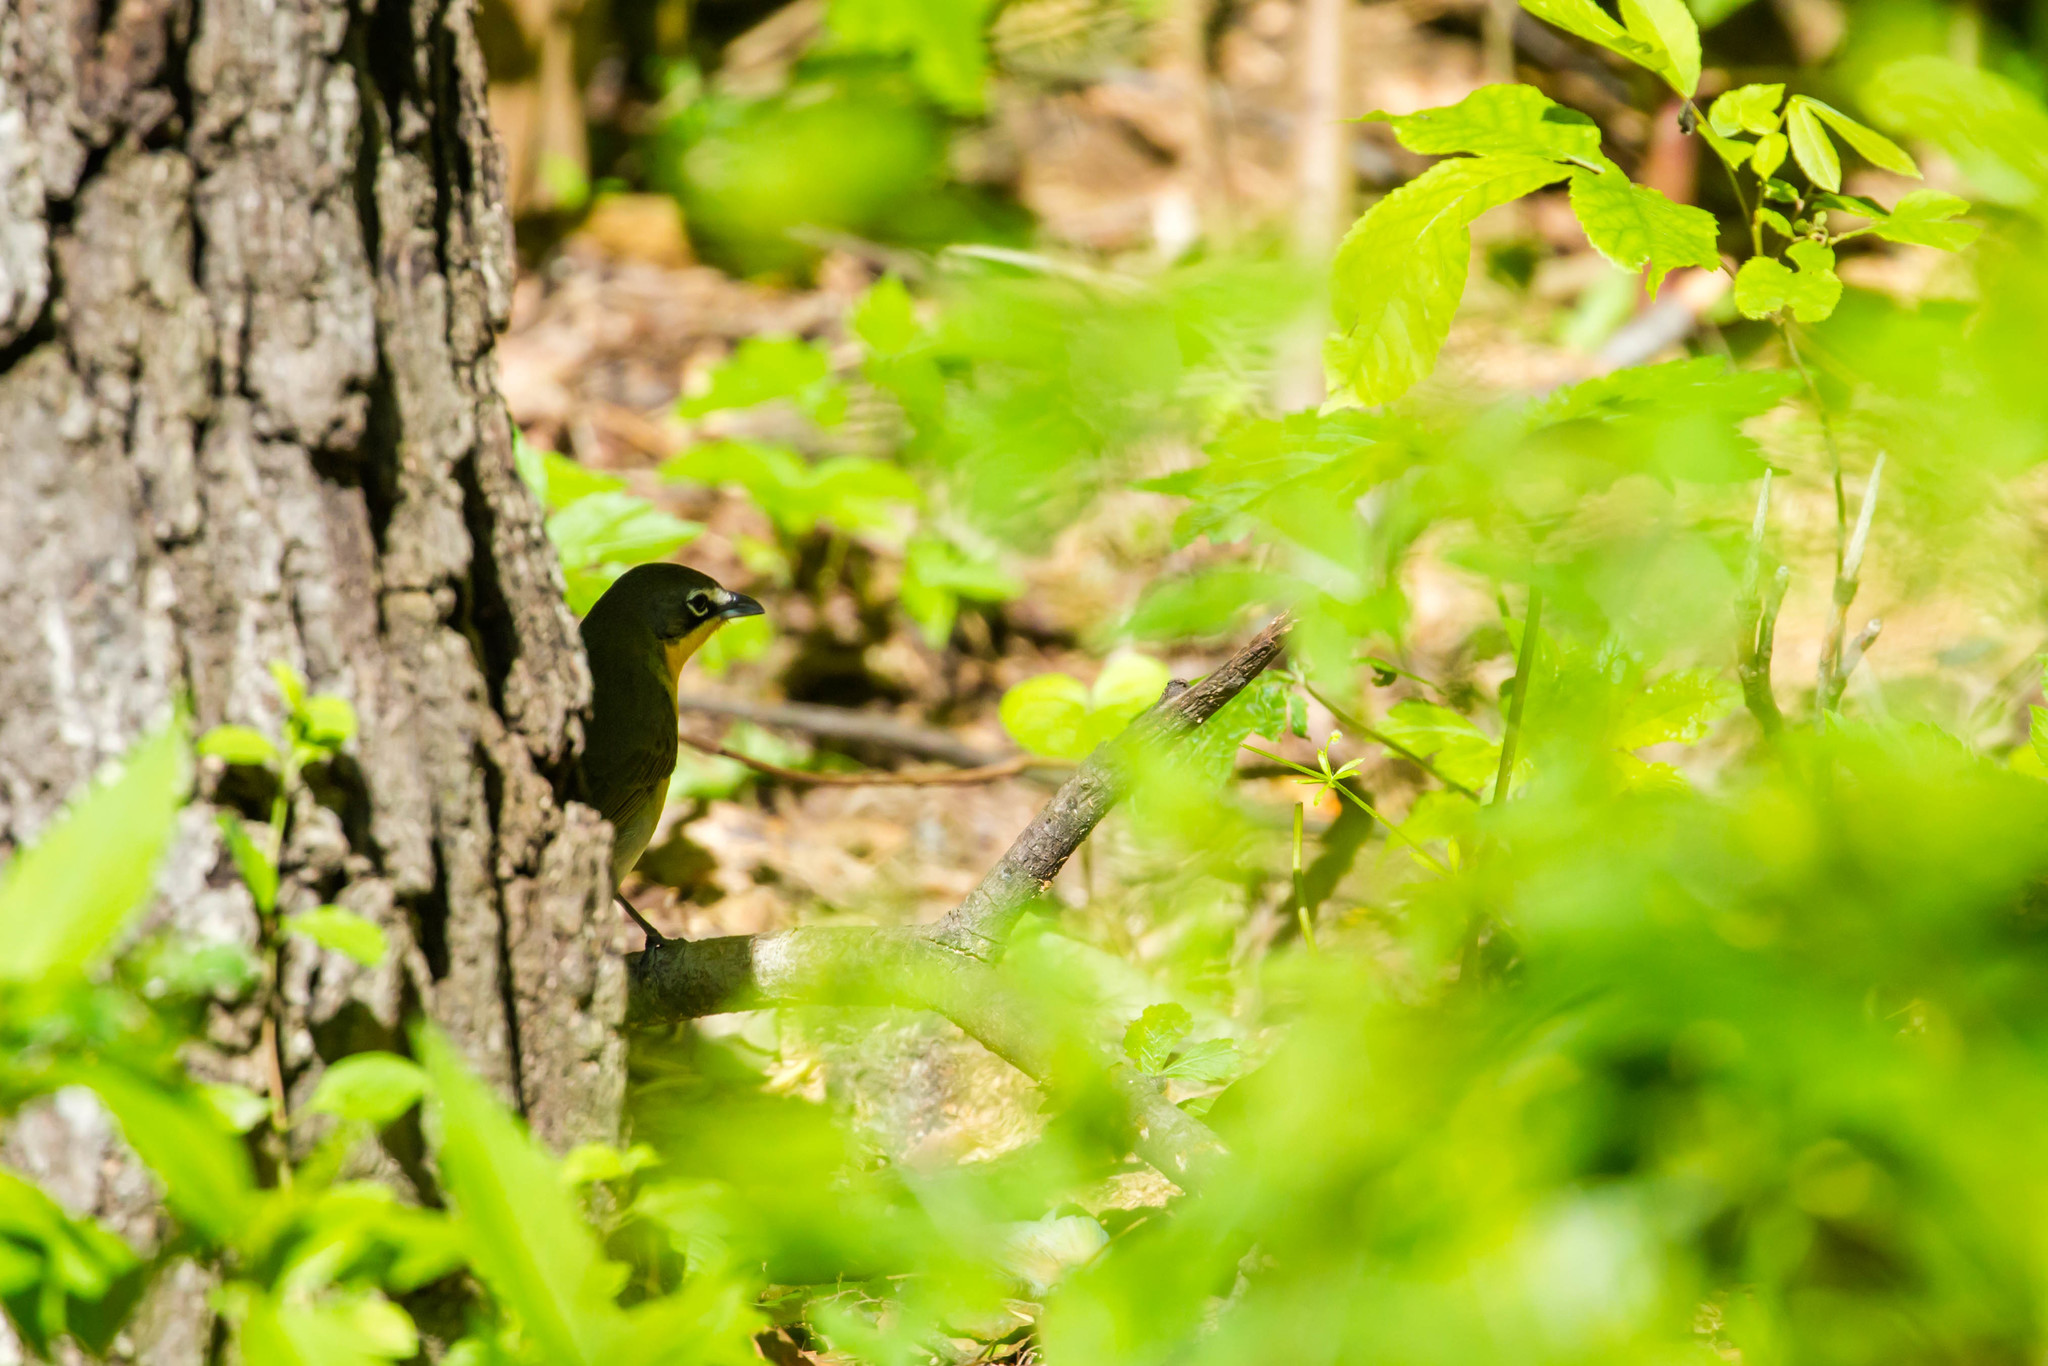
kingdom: Animalia
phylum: Chordata
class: Aves
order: Passeriformes
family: Parulidae
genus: Icteria
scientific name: Icteria virens
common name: Yellow-breasted chat
